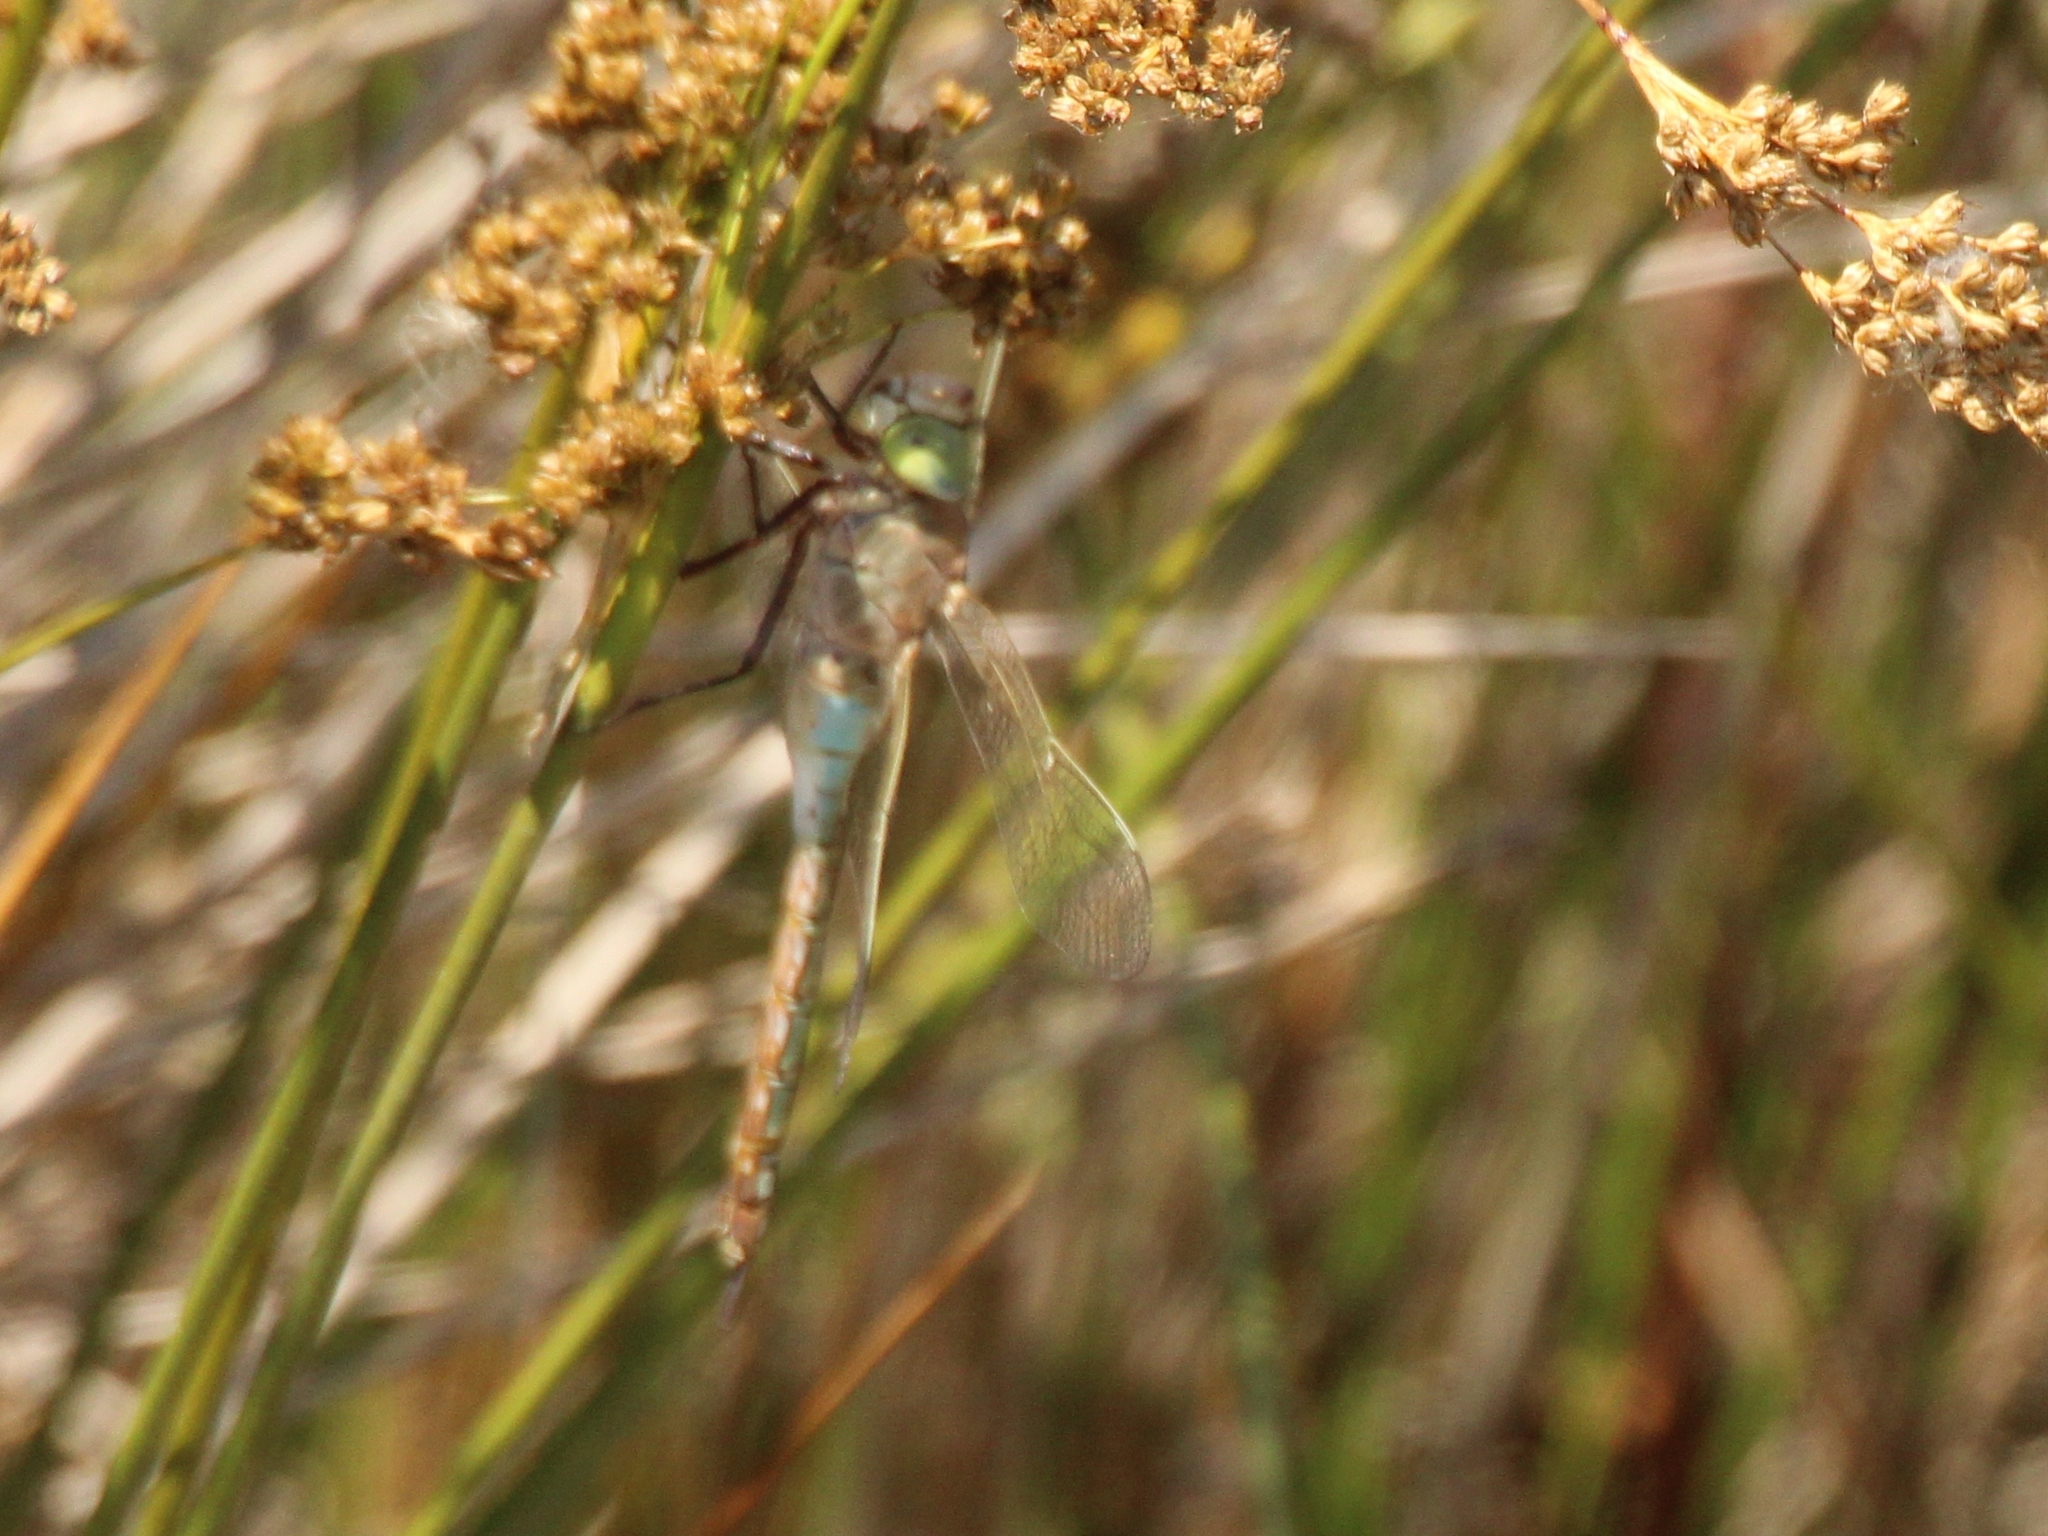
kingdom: Animalia
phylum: Arthropoda
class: Insecta
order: Odonata
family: Aeshnidae
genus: Anax
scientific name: Anax parthenope
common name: Lesser emperor
